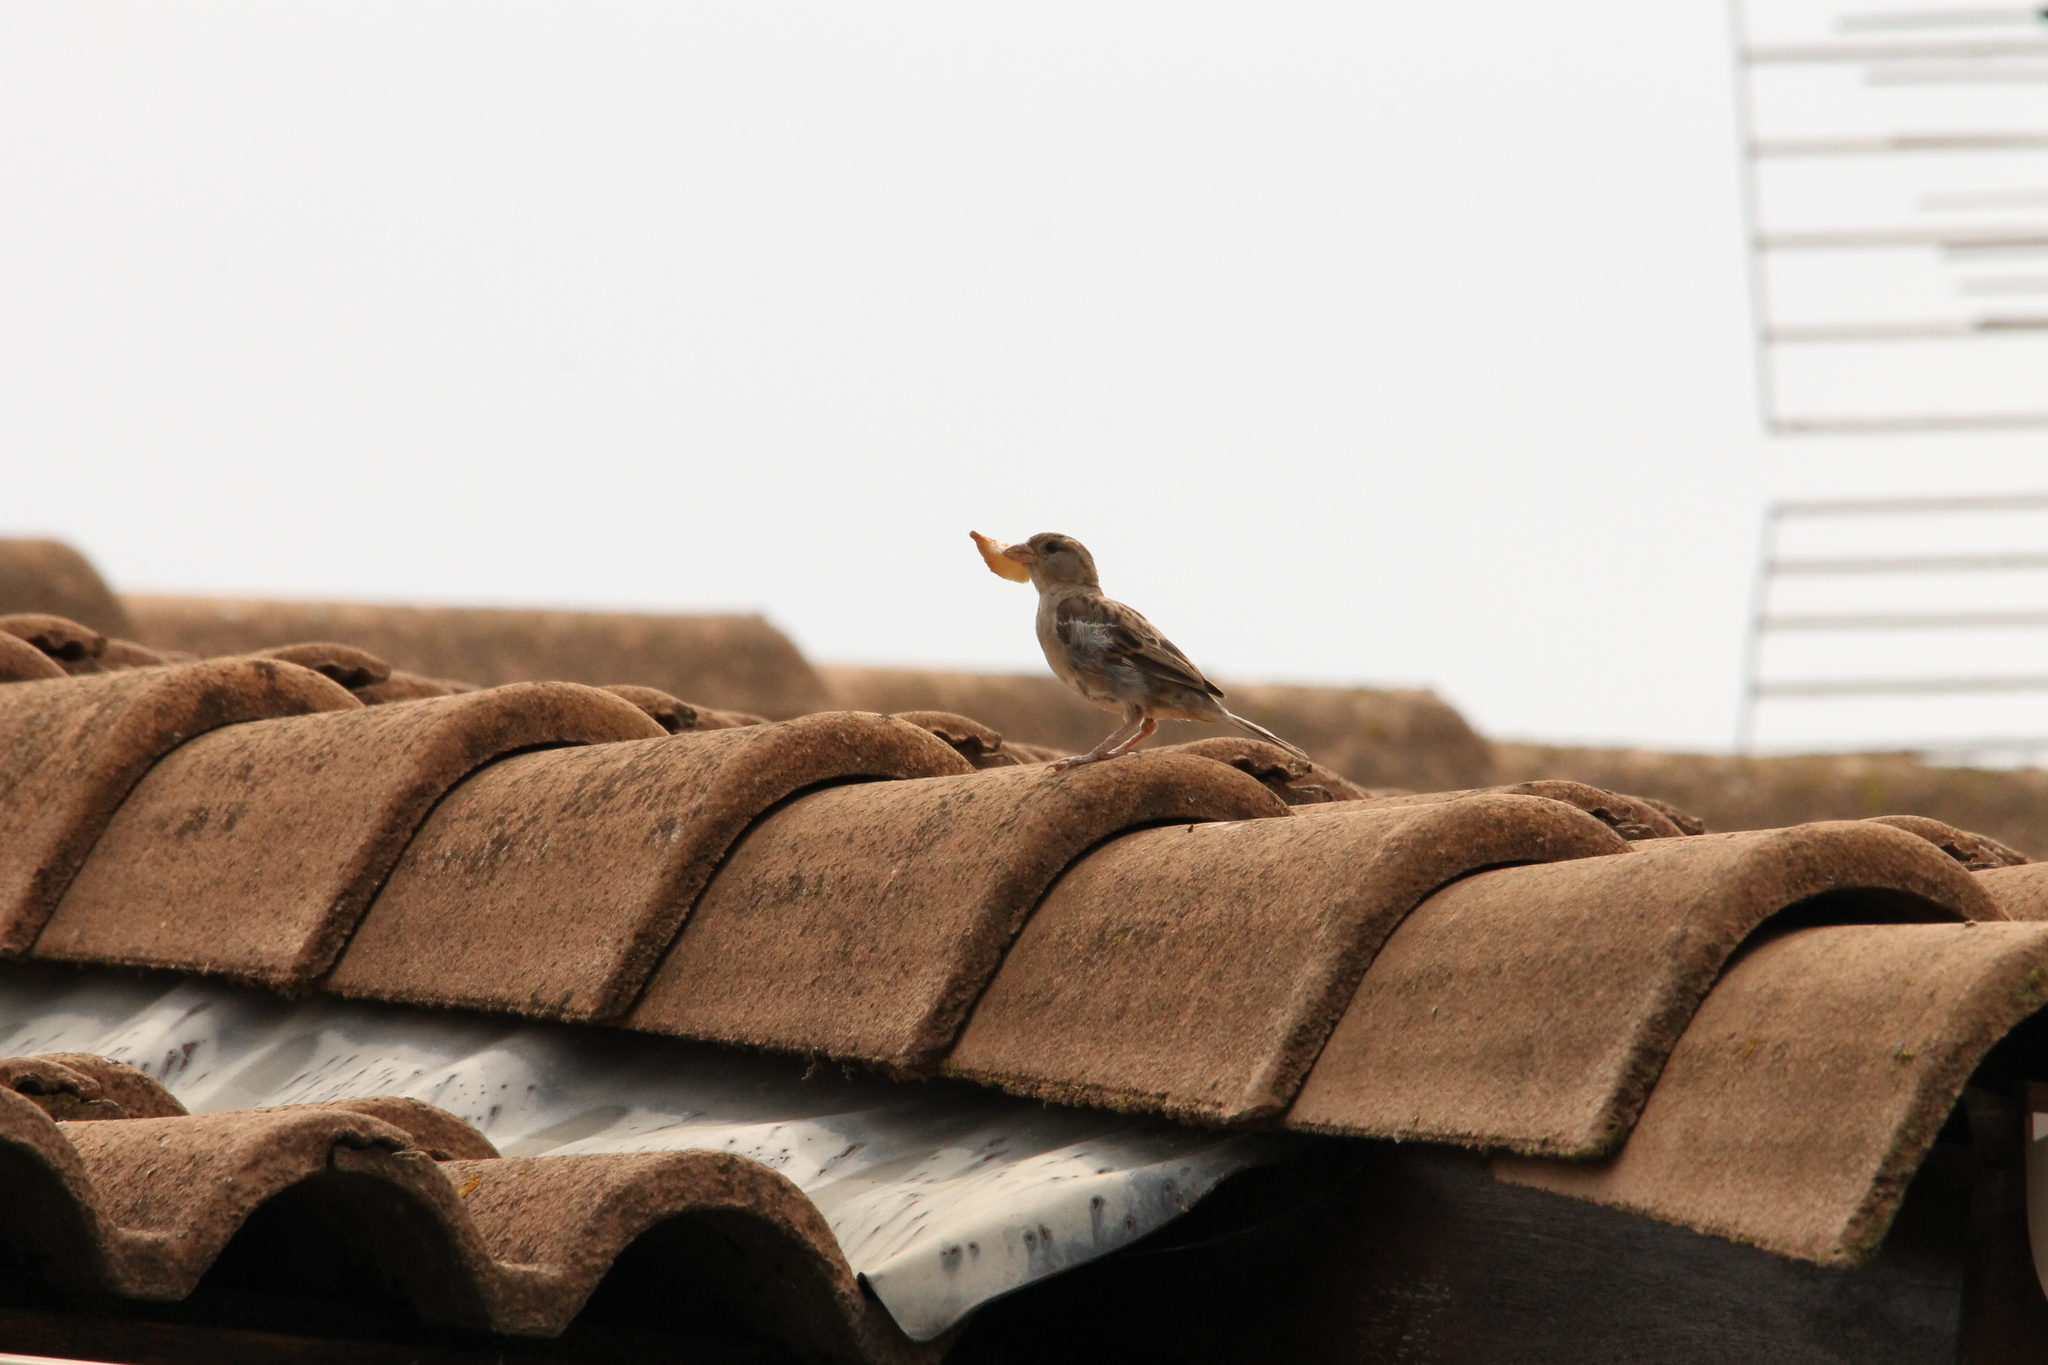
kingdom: Animalia
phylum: Chordata
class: Aves
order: Passeriformes
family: Passeridae
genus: Passer
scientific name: Passer domesticus
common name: House sparrow
